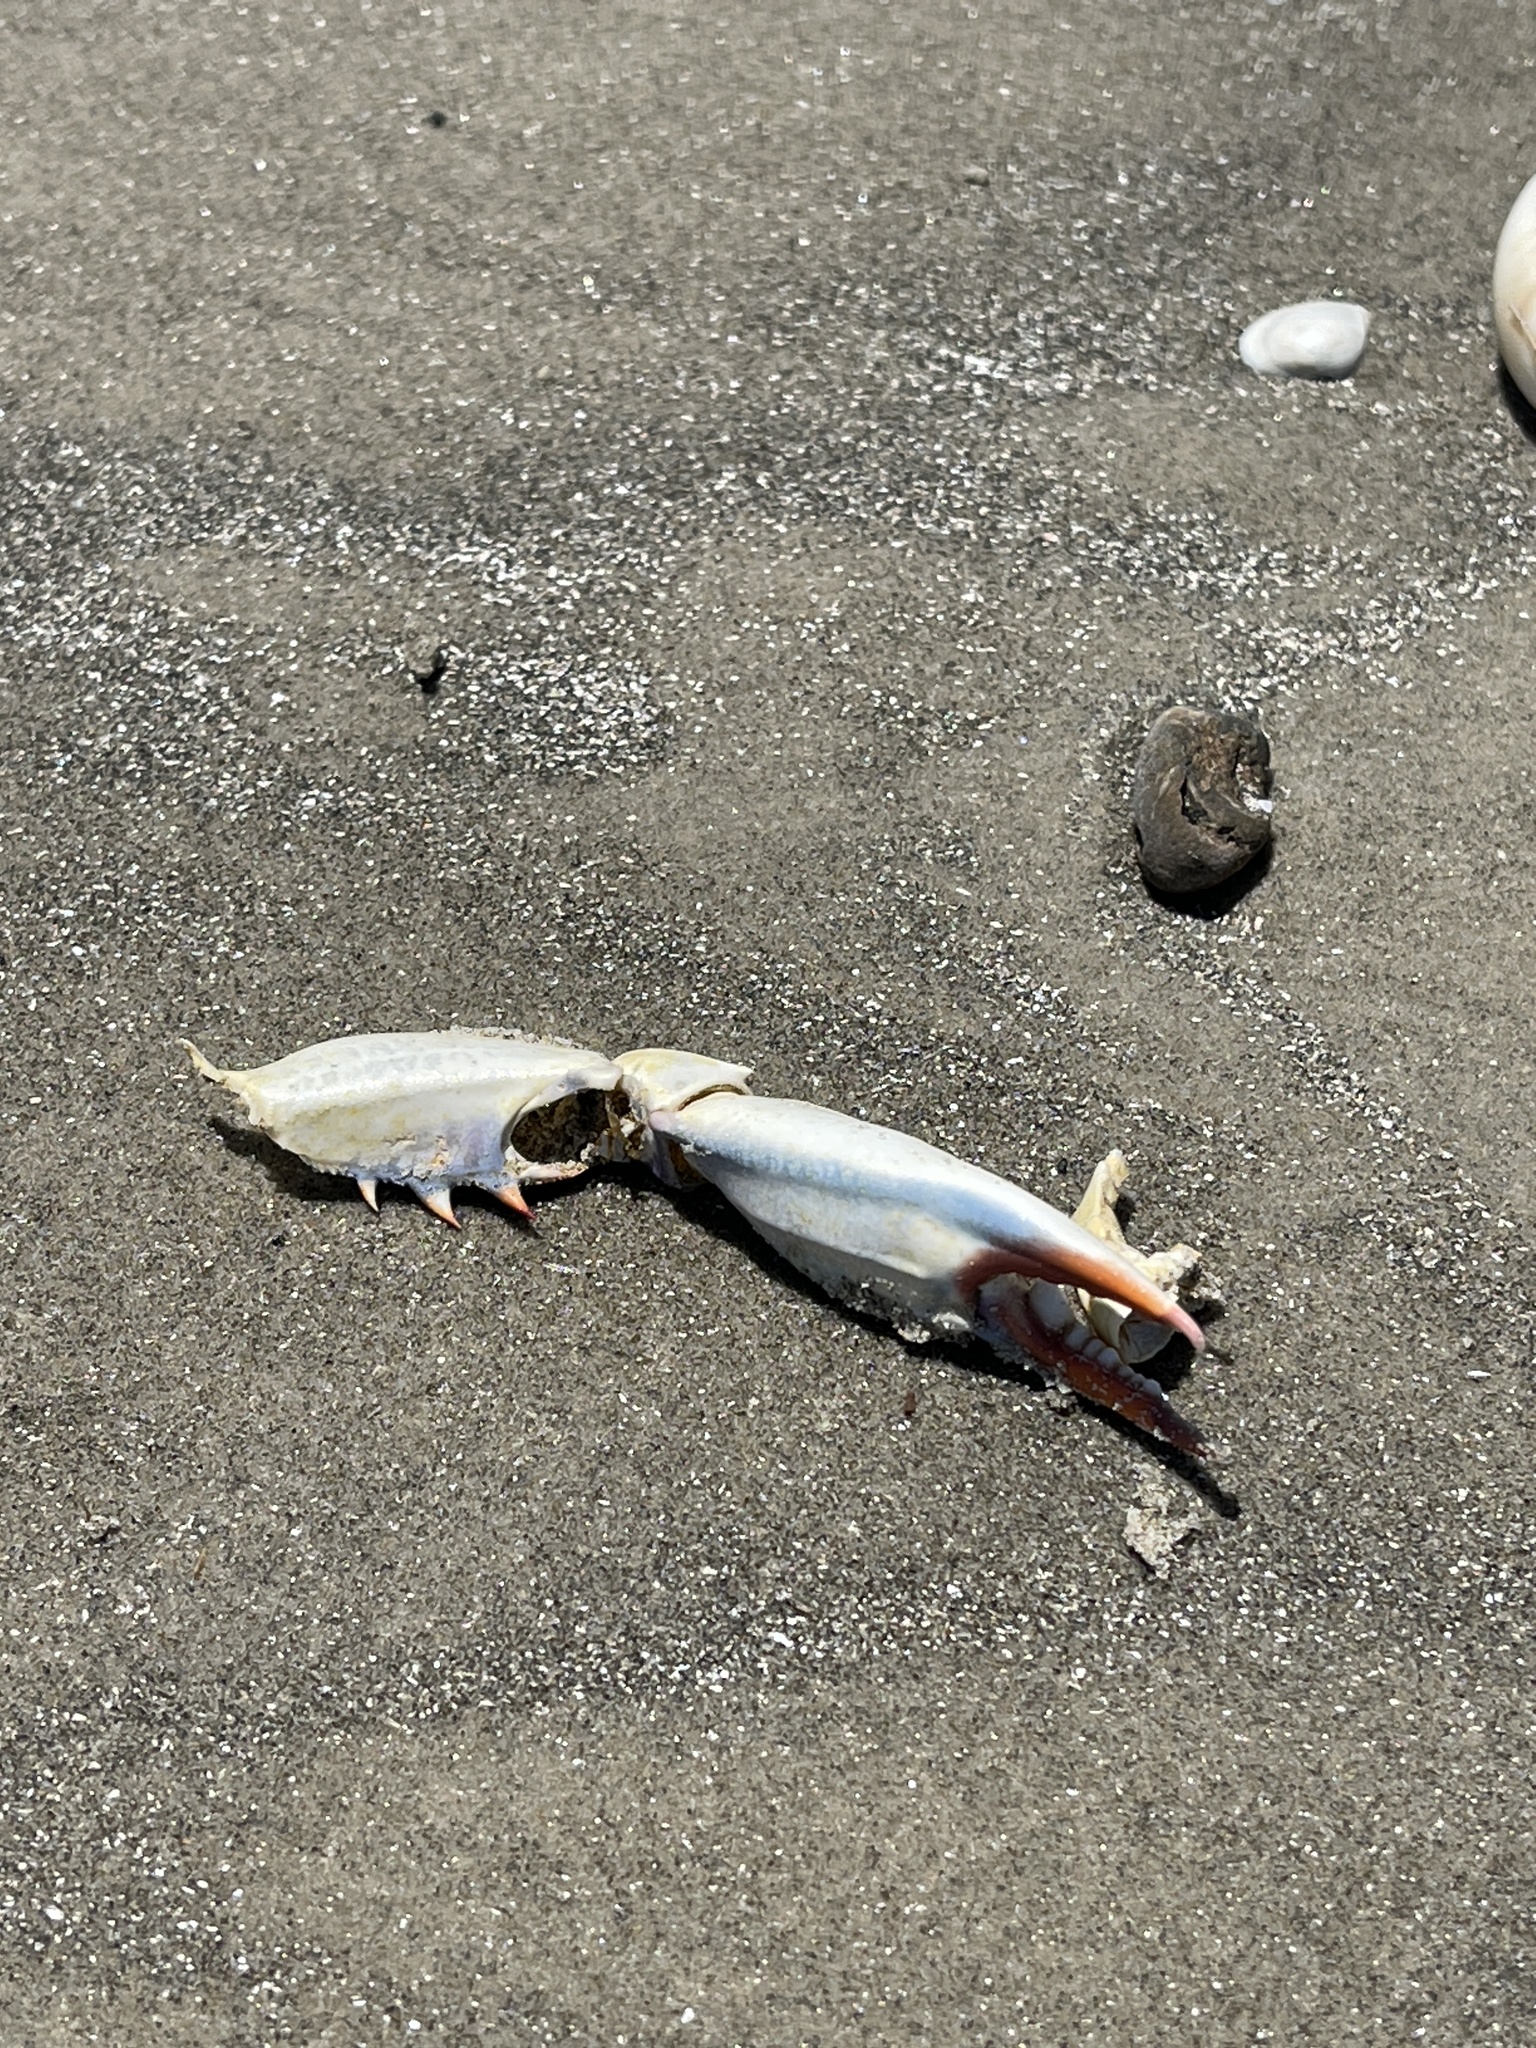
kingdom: Animalia
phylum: Arthropoda
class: Malacostraca
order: Decapoda
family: Portunidae
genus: Callinectes
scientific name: Callinectes sapidus
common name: Blue crab
